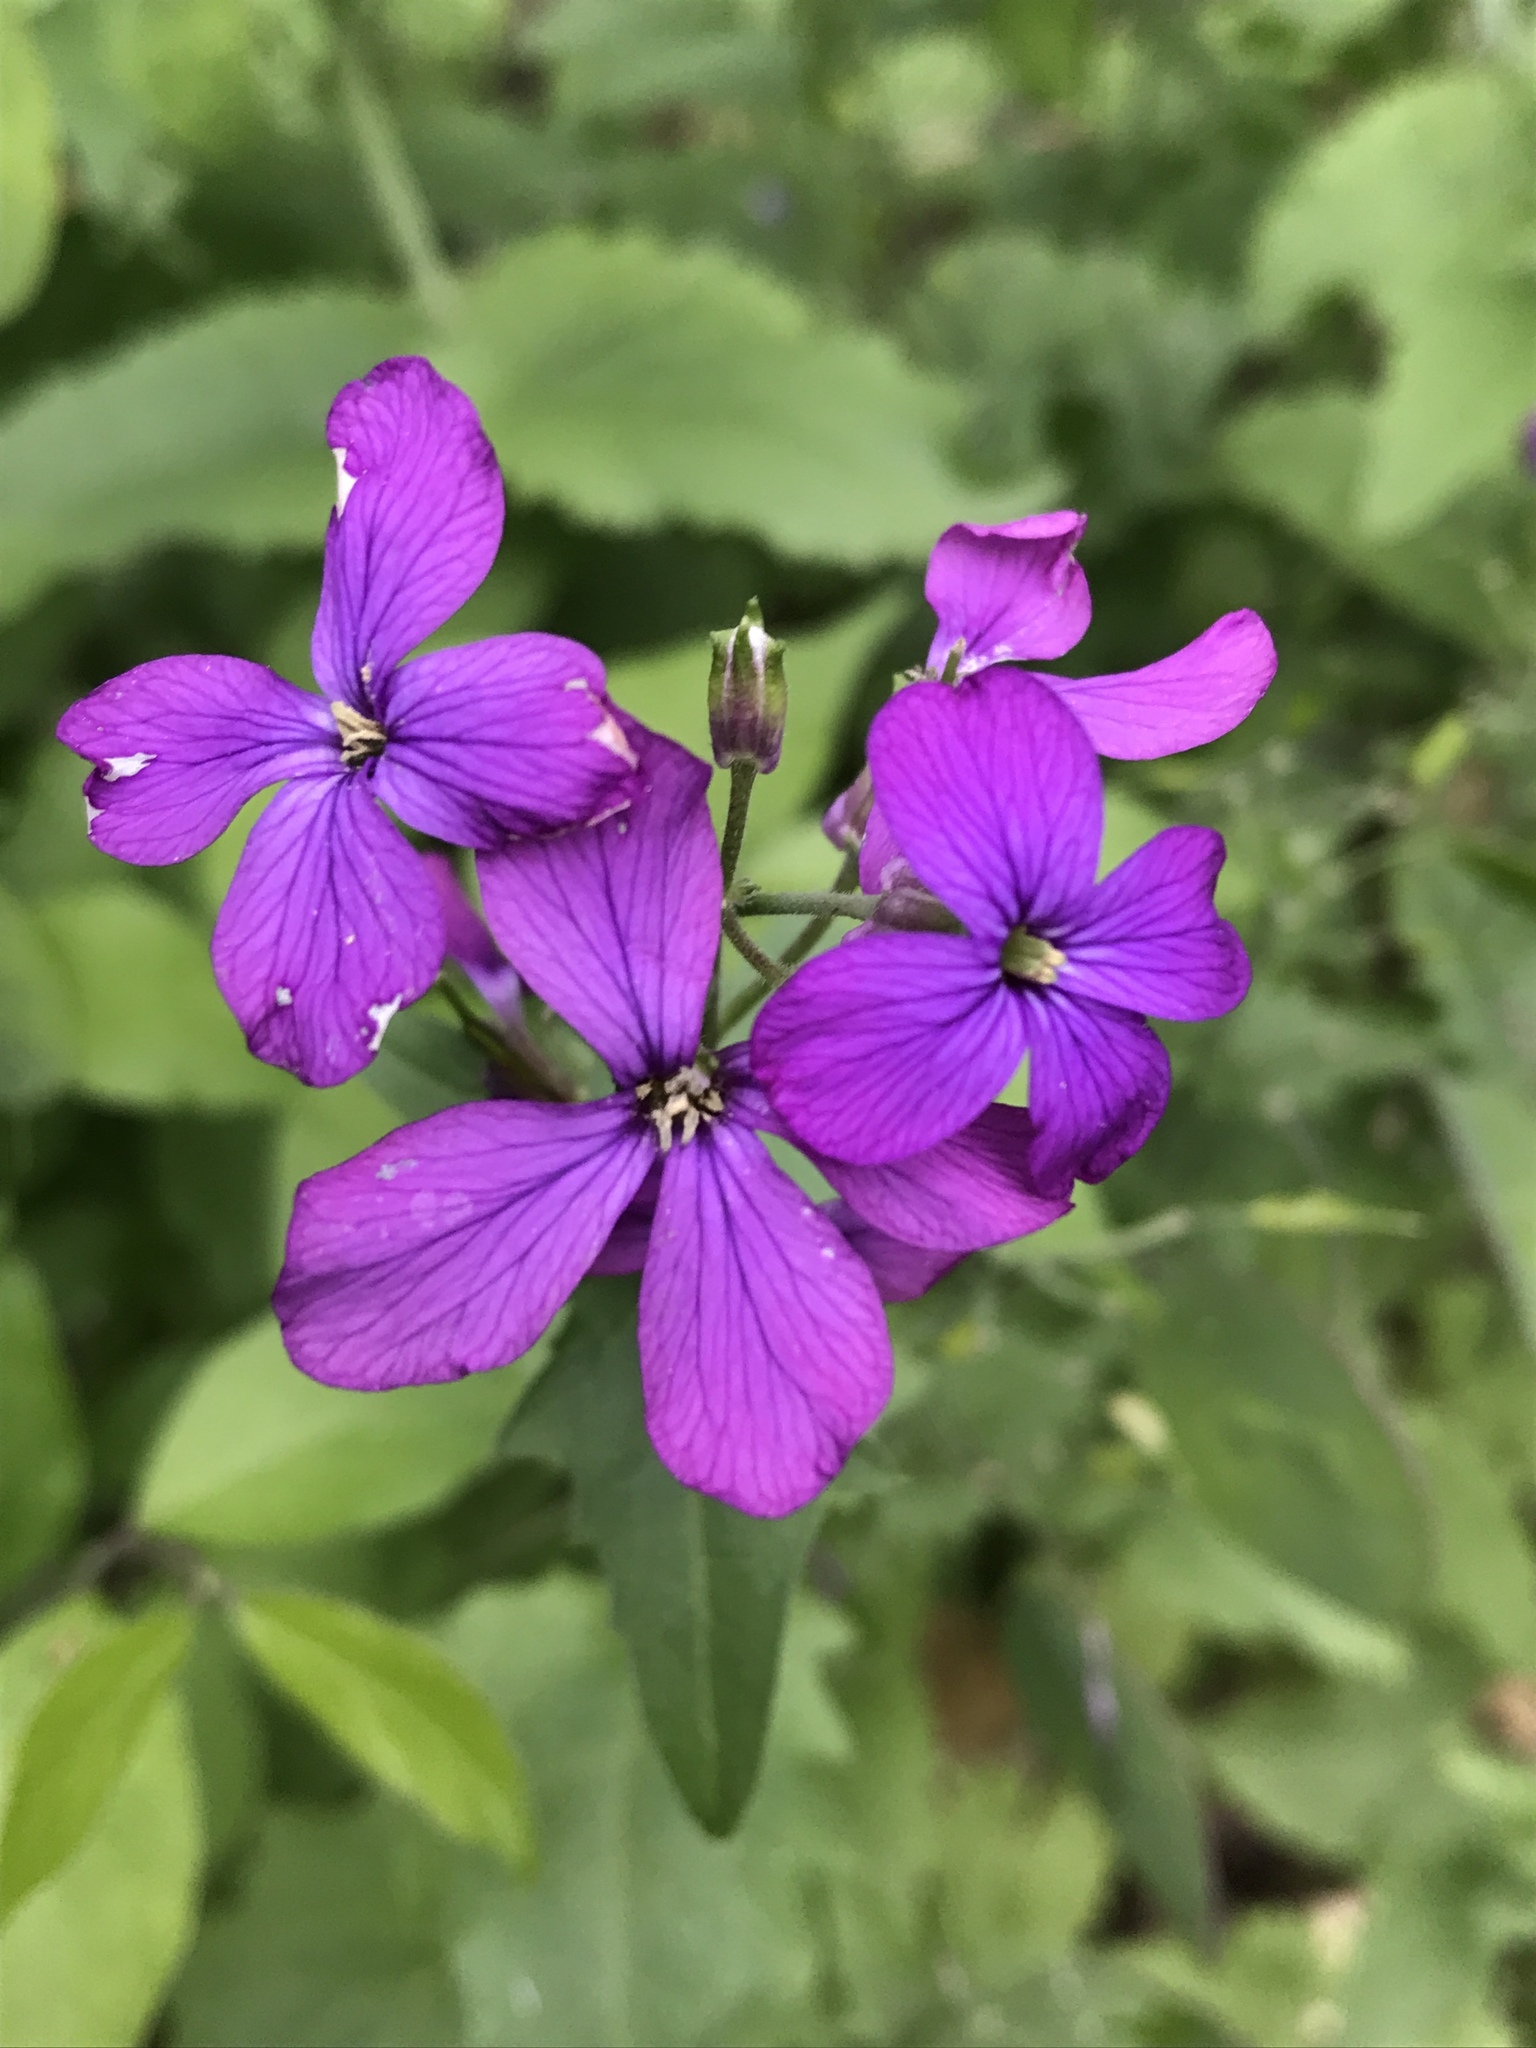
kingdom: Plantae
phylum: Tracheophyta
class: Magnoliopsida
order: Brassicales
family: Brassicaceae
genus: Lunaria
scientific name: Lunaria annua
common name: Honesty
